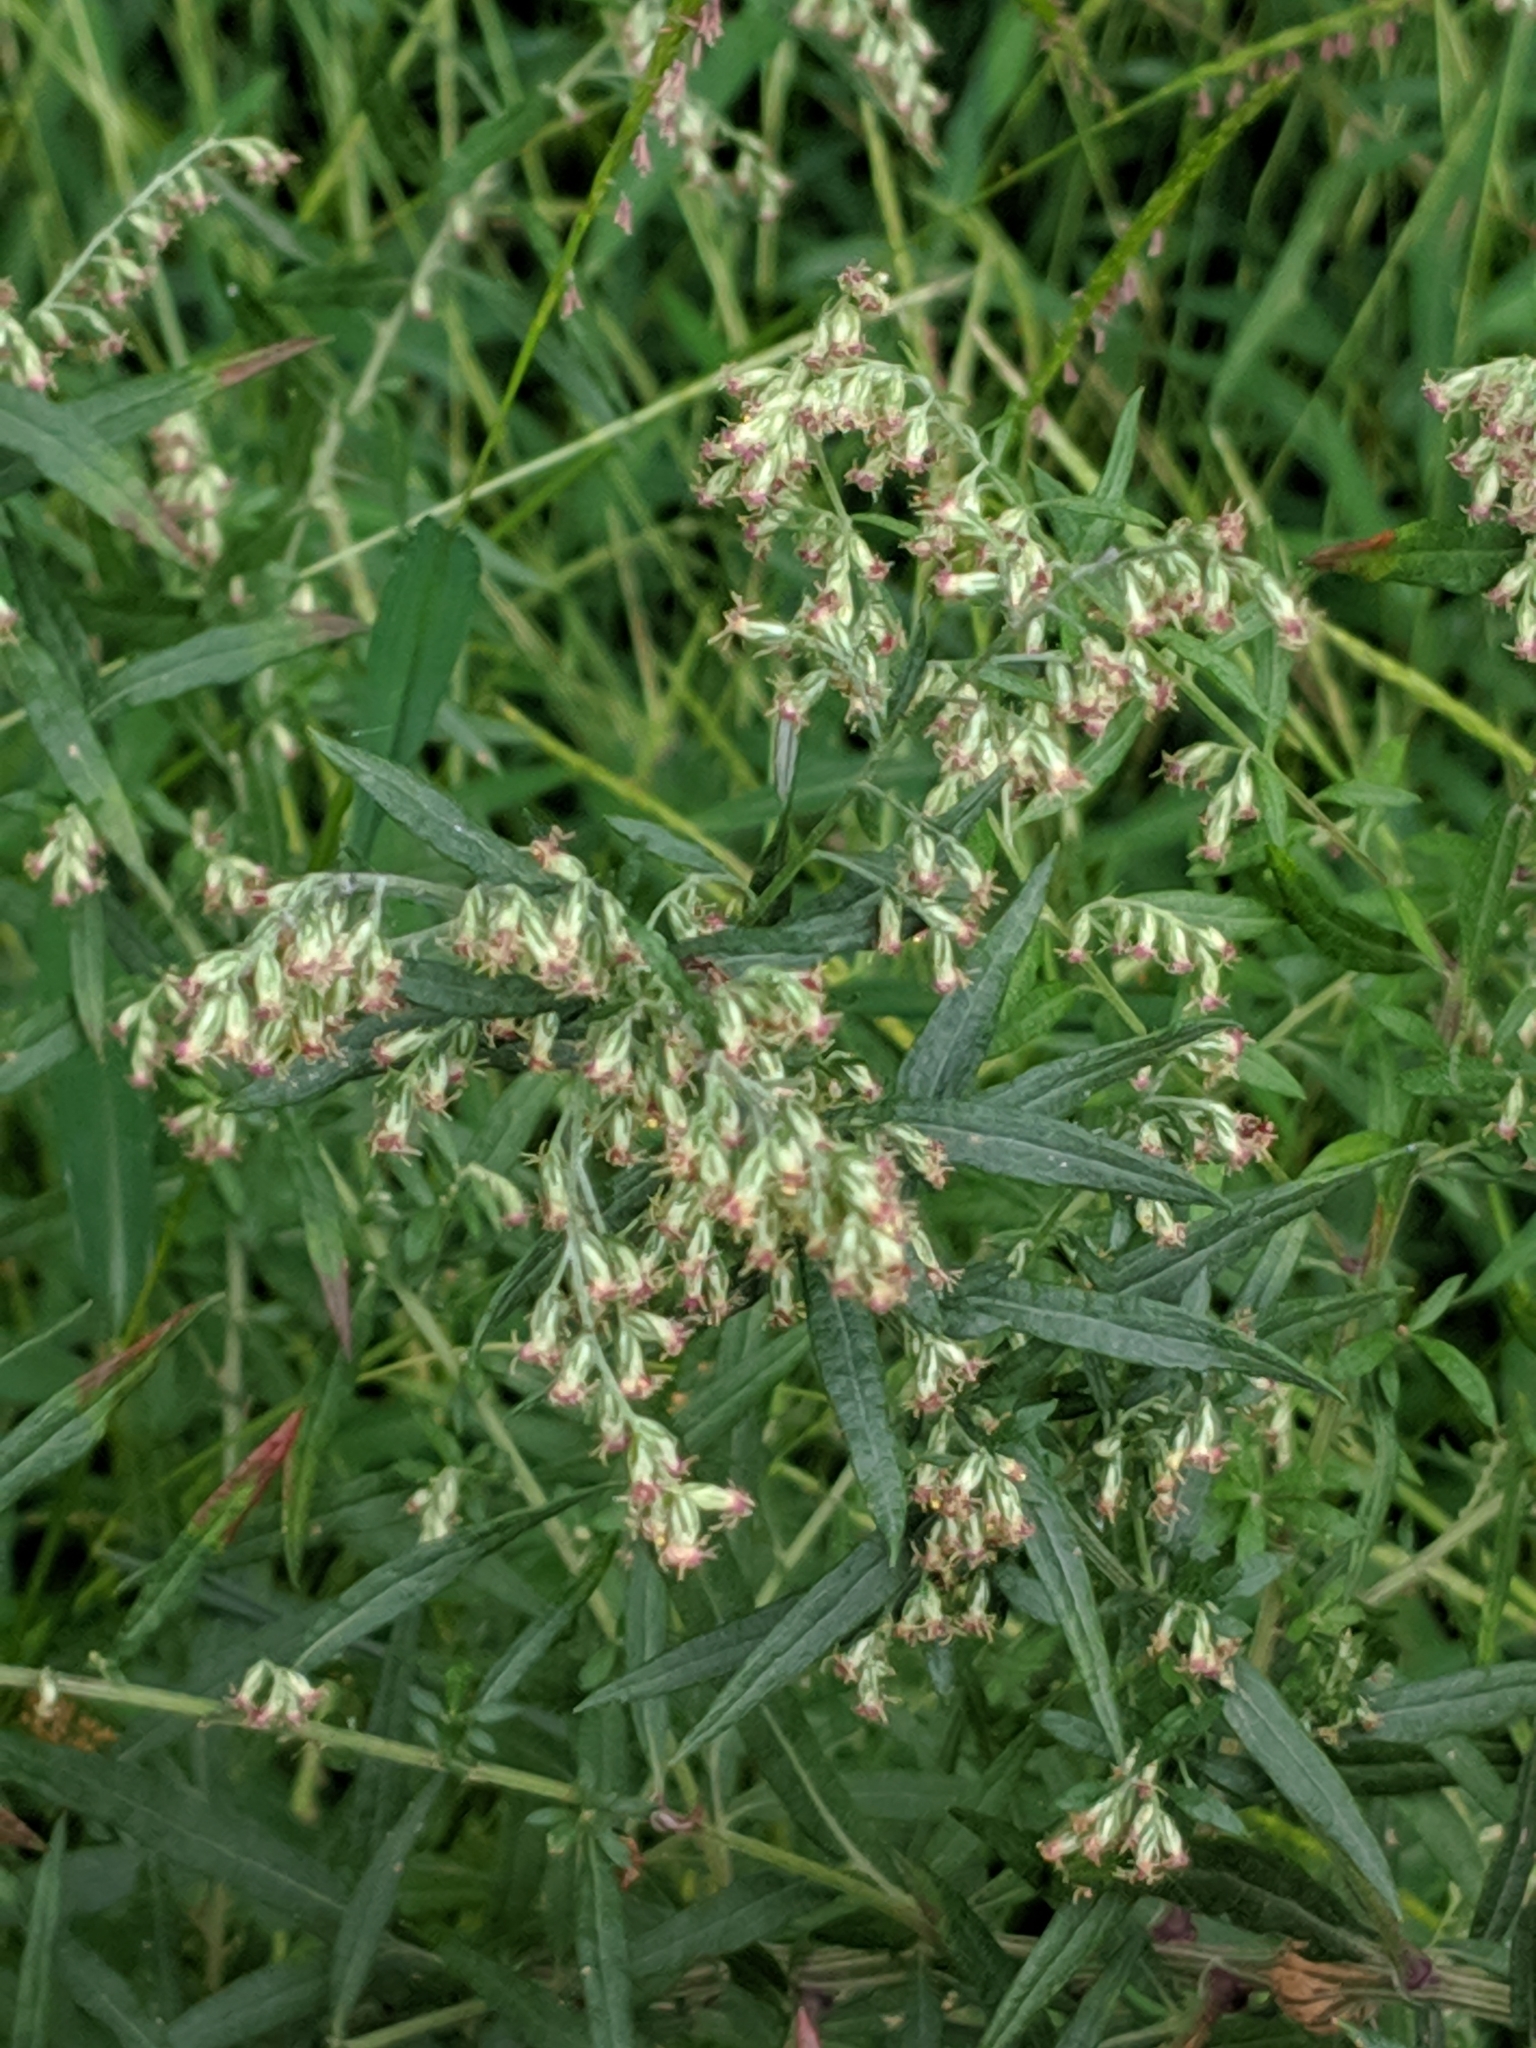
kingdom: Plantae
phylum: Tracheophyta
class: Magnoliopsida
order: Asterales
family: Asteraceae
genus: Artemisia
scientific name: Artemisia vulgaris
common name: Mugwort
